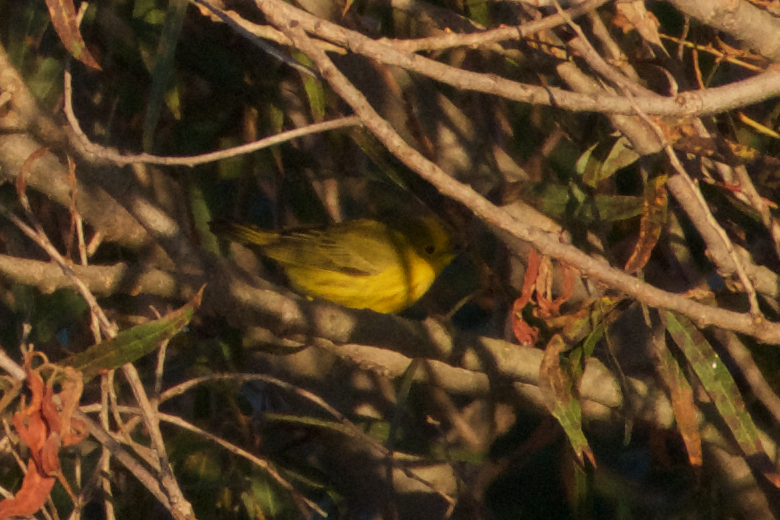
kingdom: Animalia
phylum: Chordata
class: Aves
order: Passeriformes
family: Parulidae
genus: Setophaga
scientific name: Setophaga petechia
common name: Yellow warbler
